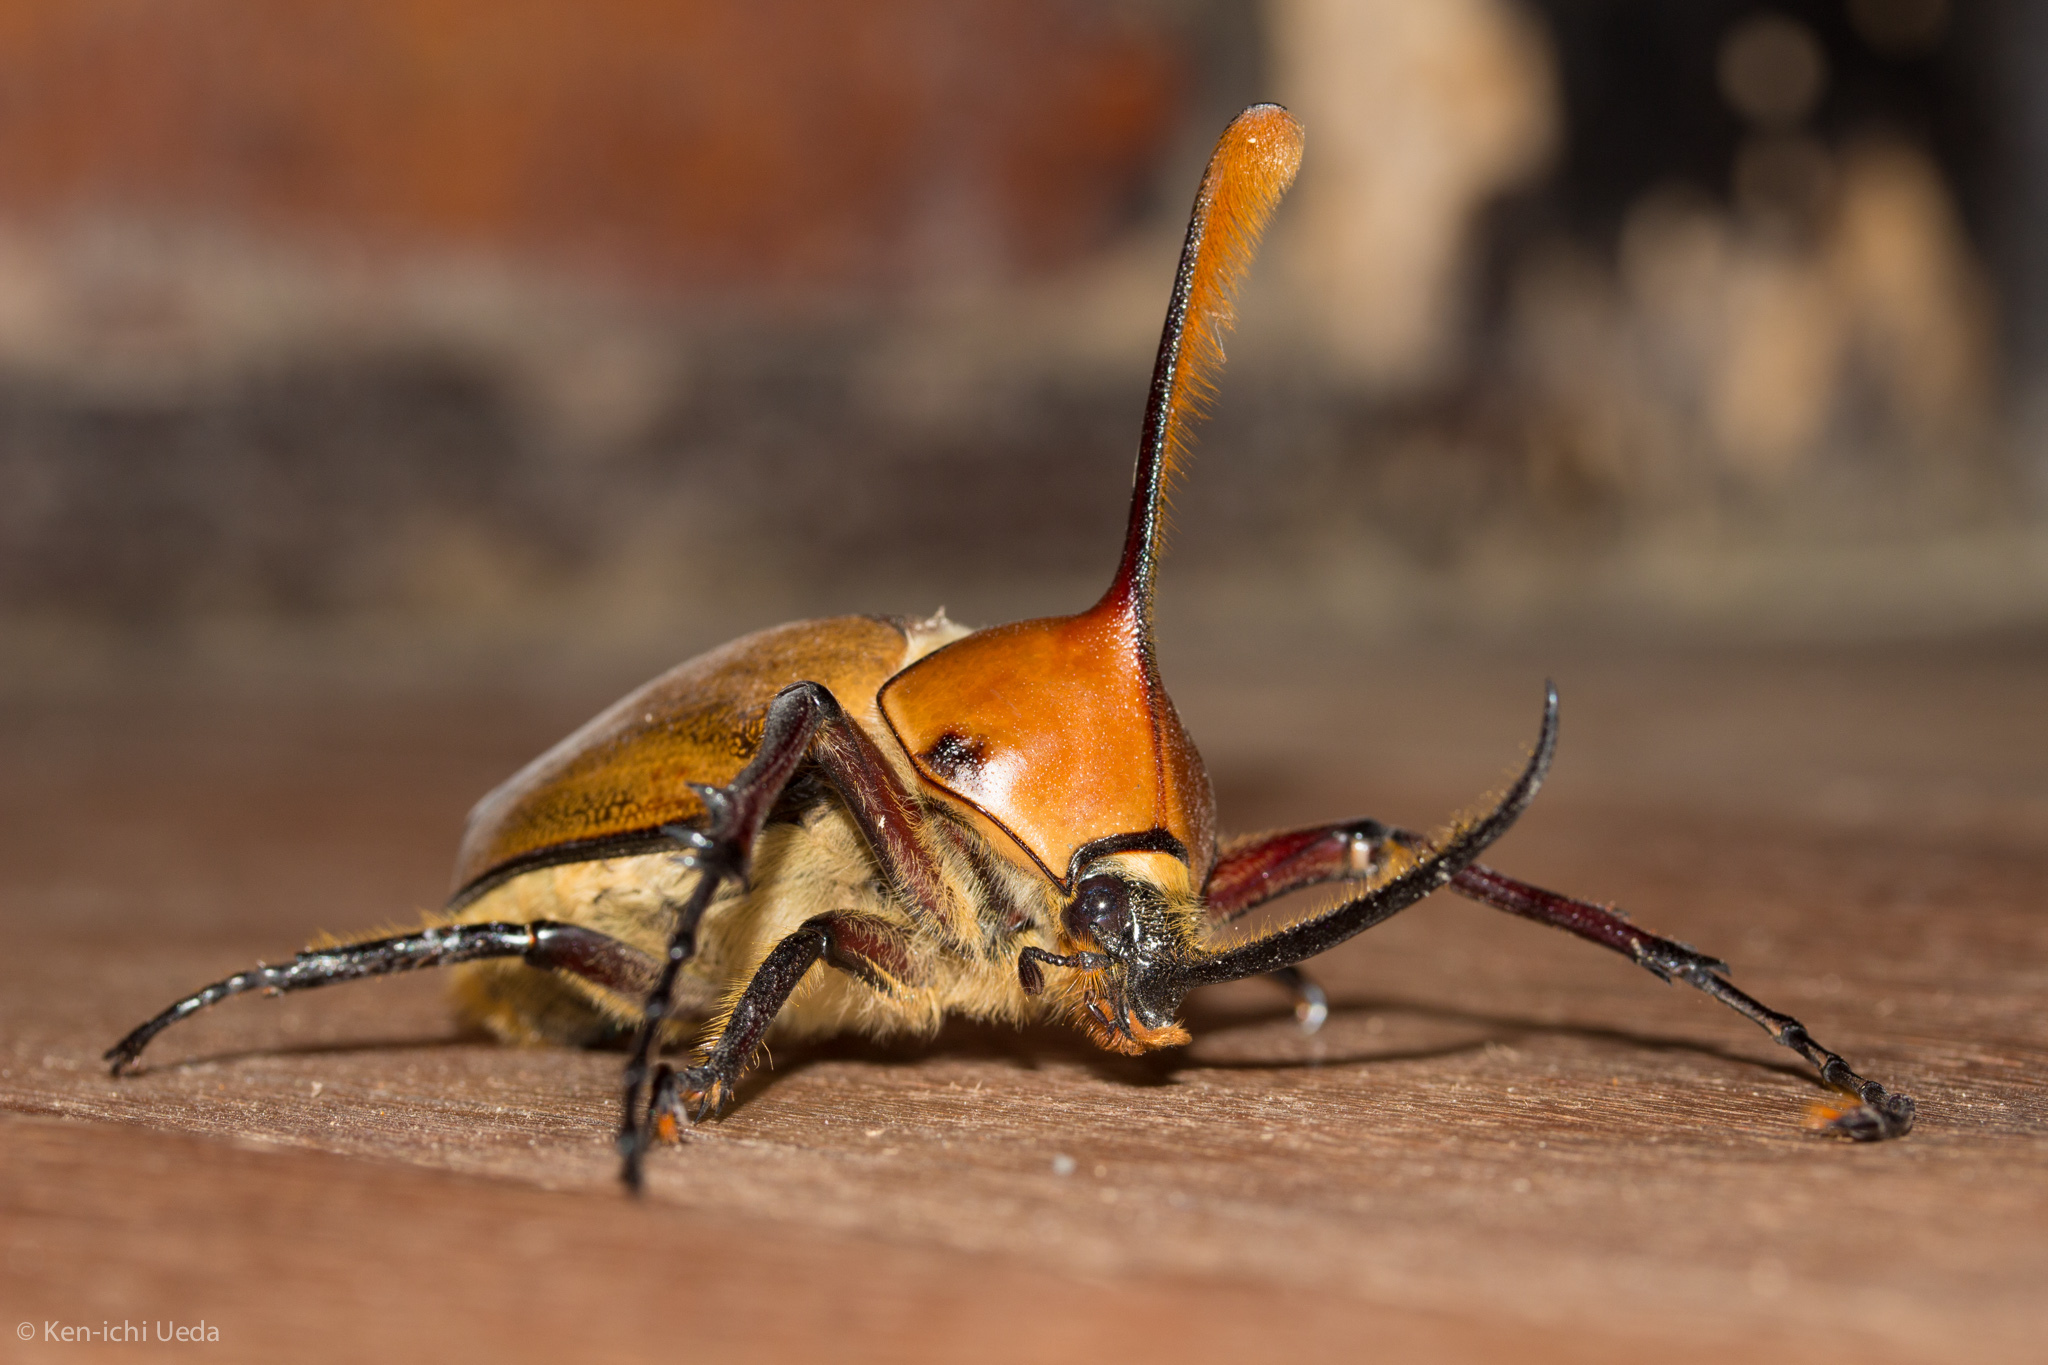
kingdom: Animalia
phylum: Arthropoda
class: Insecta
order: Coleoptera
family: Scarabaeidae
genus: Golofa
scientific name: Golofa eacus
